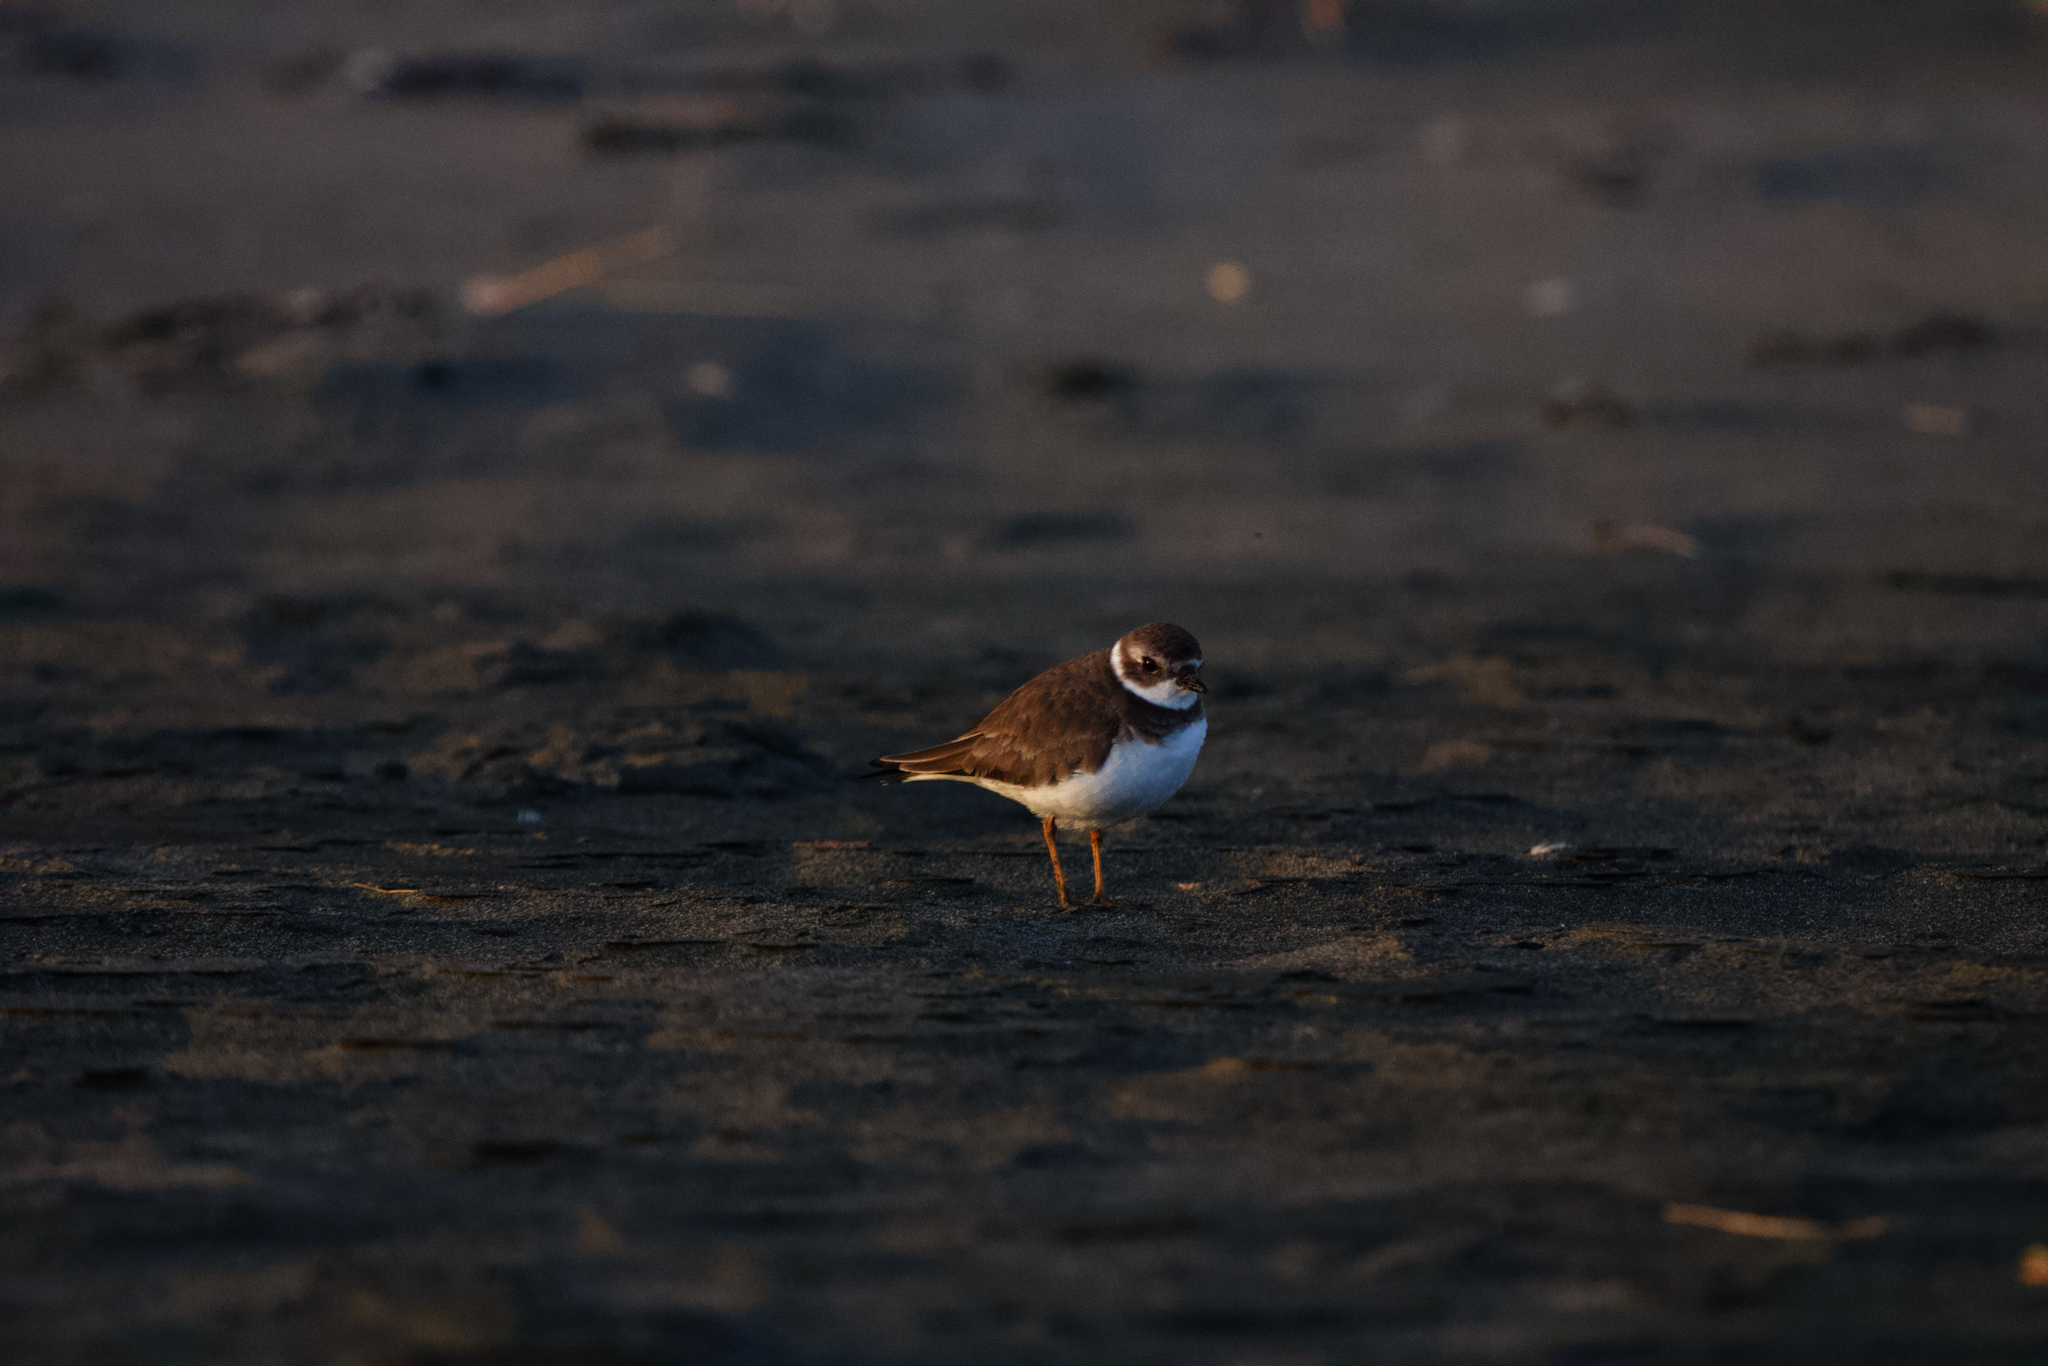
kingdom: Animalia
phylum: Chordata
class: Aves
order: Charadriiformes
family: Charadriidae
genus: Charadrius
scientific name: Charadrius semipalmatus
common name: Semipalmated plover
